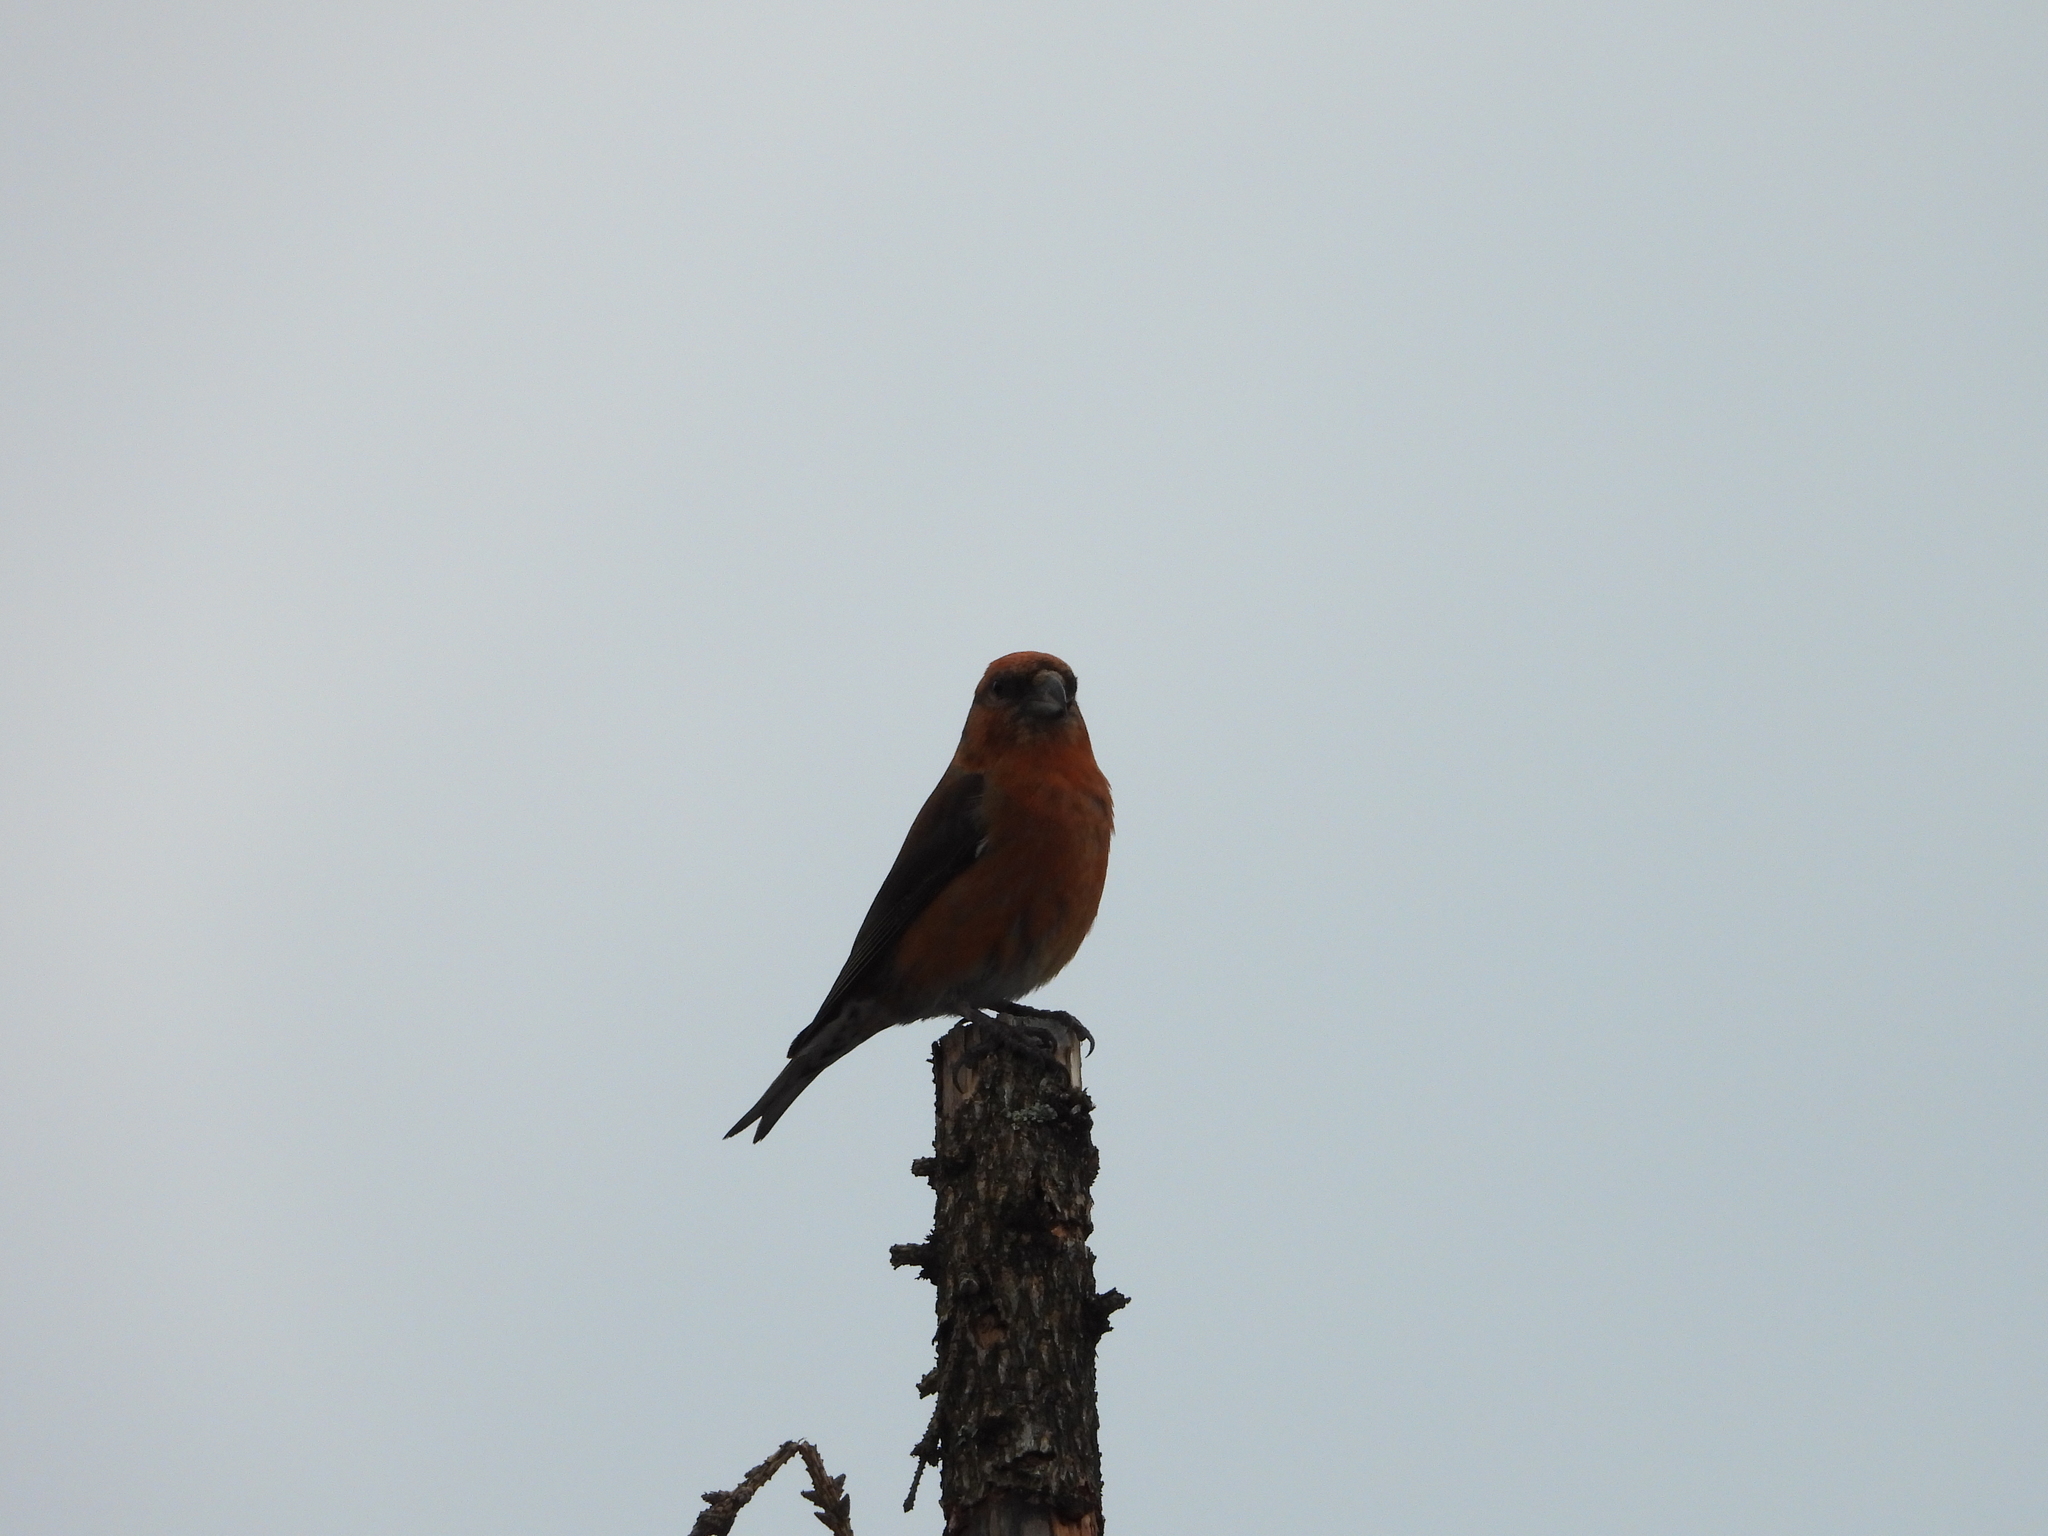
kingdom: Animalia
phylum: Chordata
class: Aves
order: Passeriformes
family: Fringillidae
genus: Loxia
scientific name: Loxia curvirostra
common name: Red crossbill
